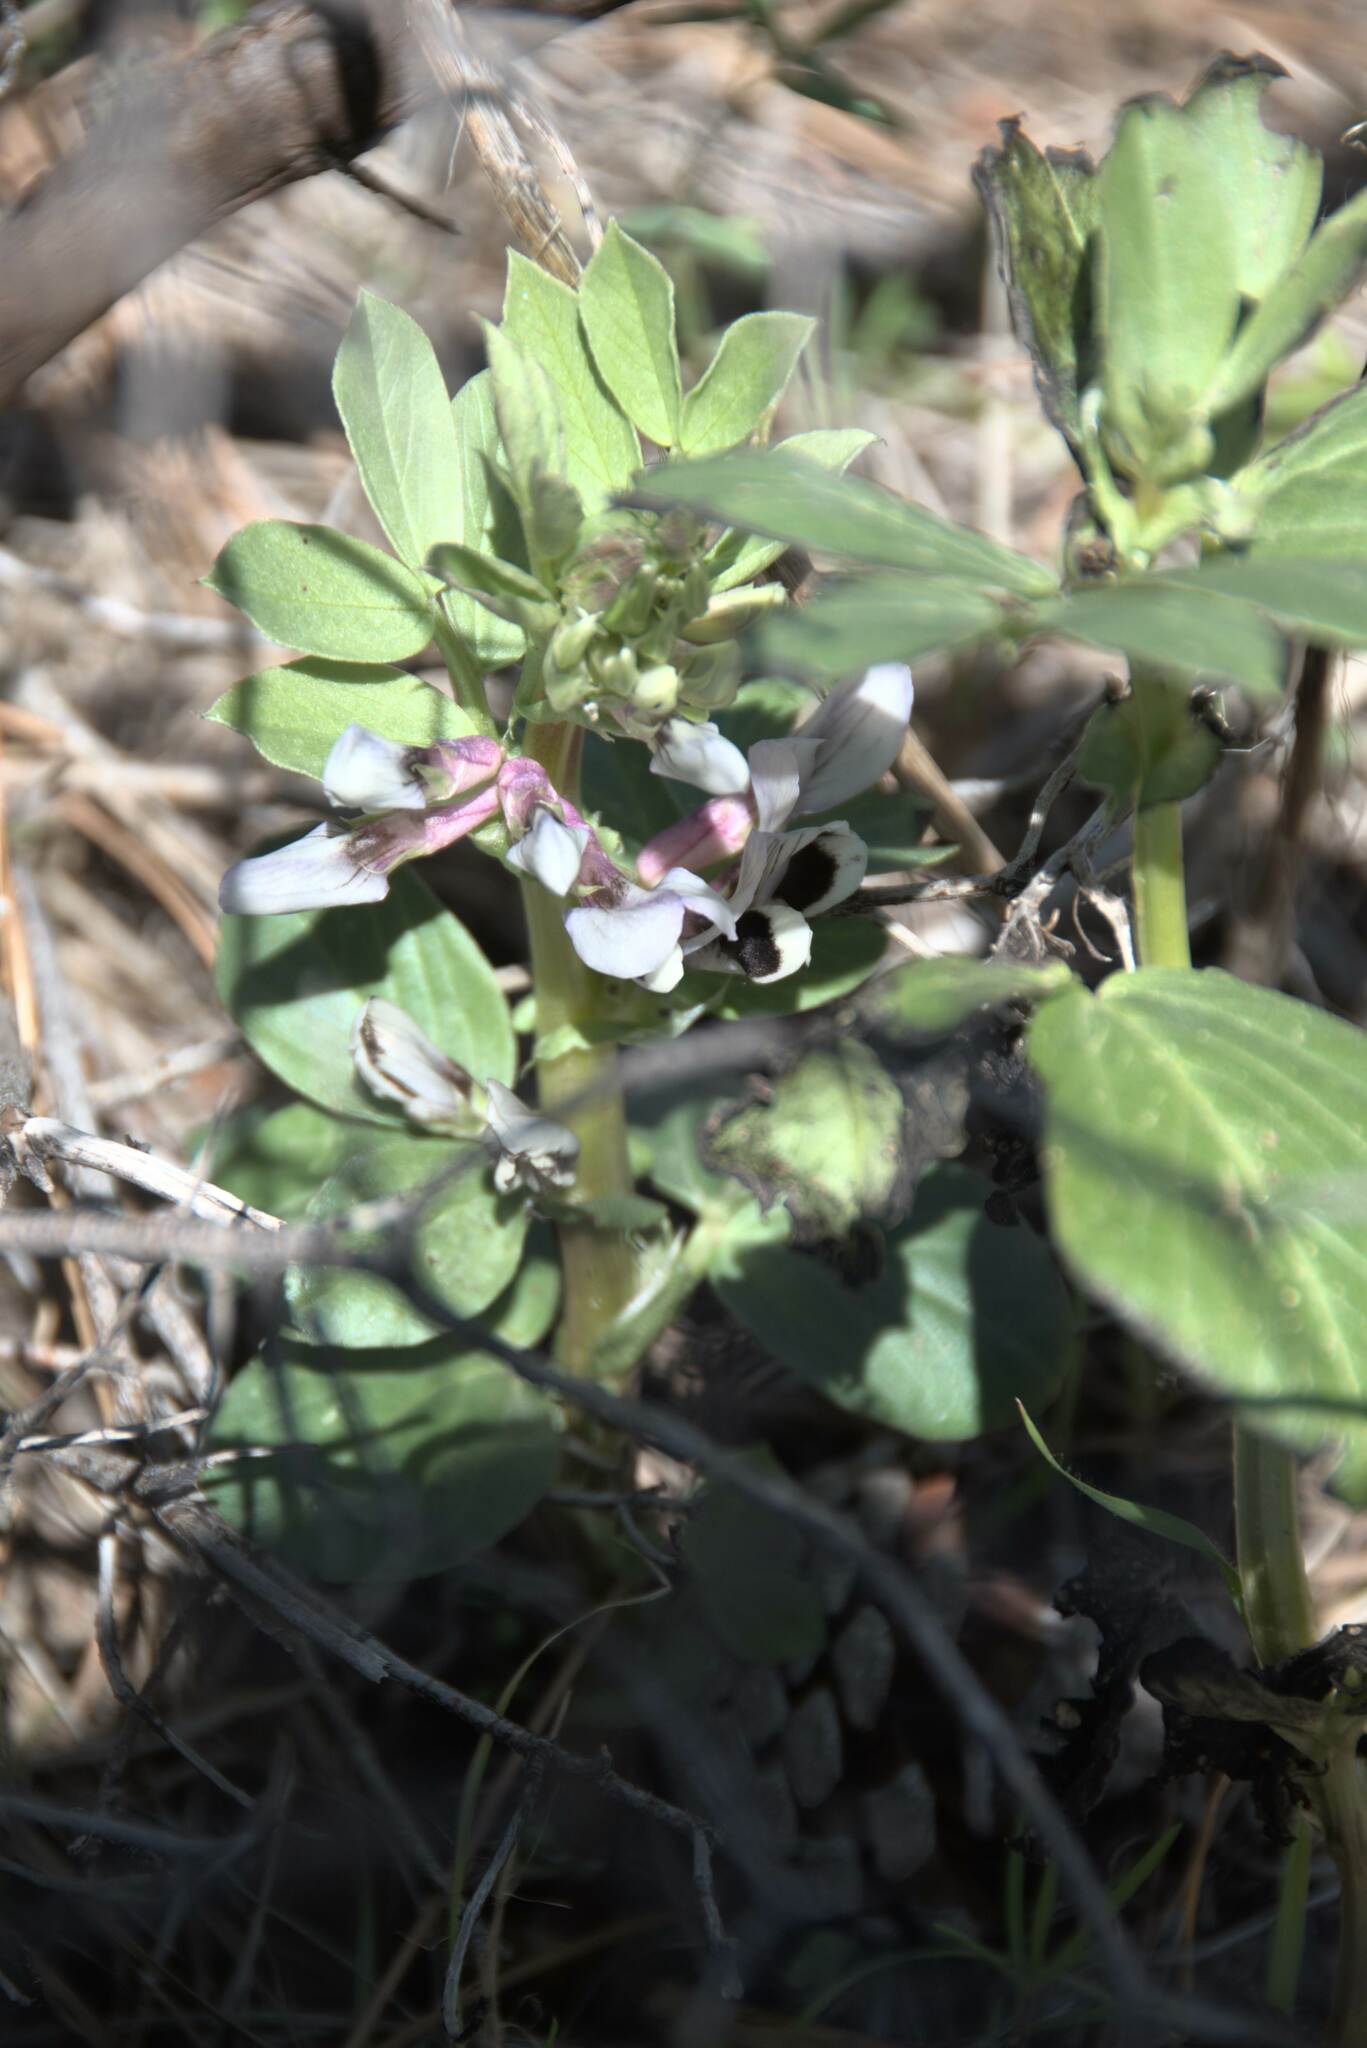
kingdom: Plantae
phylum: Tracheophyta
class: Magnoliopsida
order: Fabales
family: Fabaceae
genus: Vicia
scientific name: Vicia faba
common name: Broad bean
